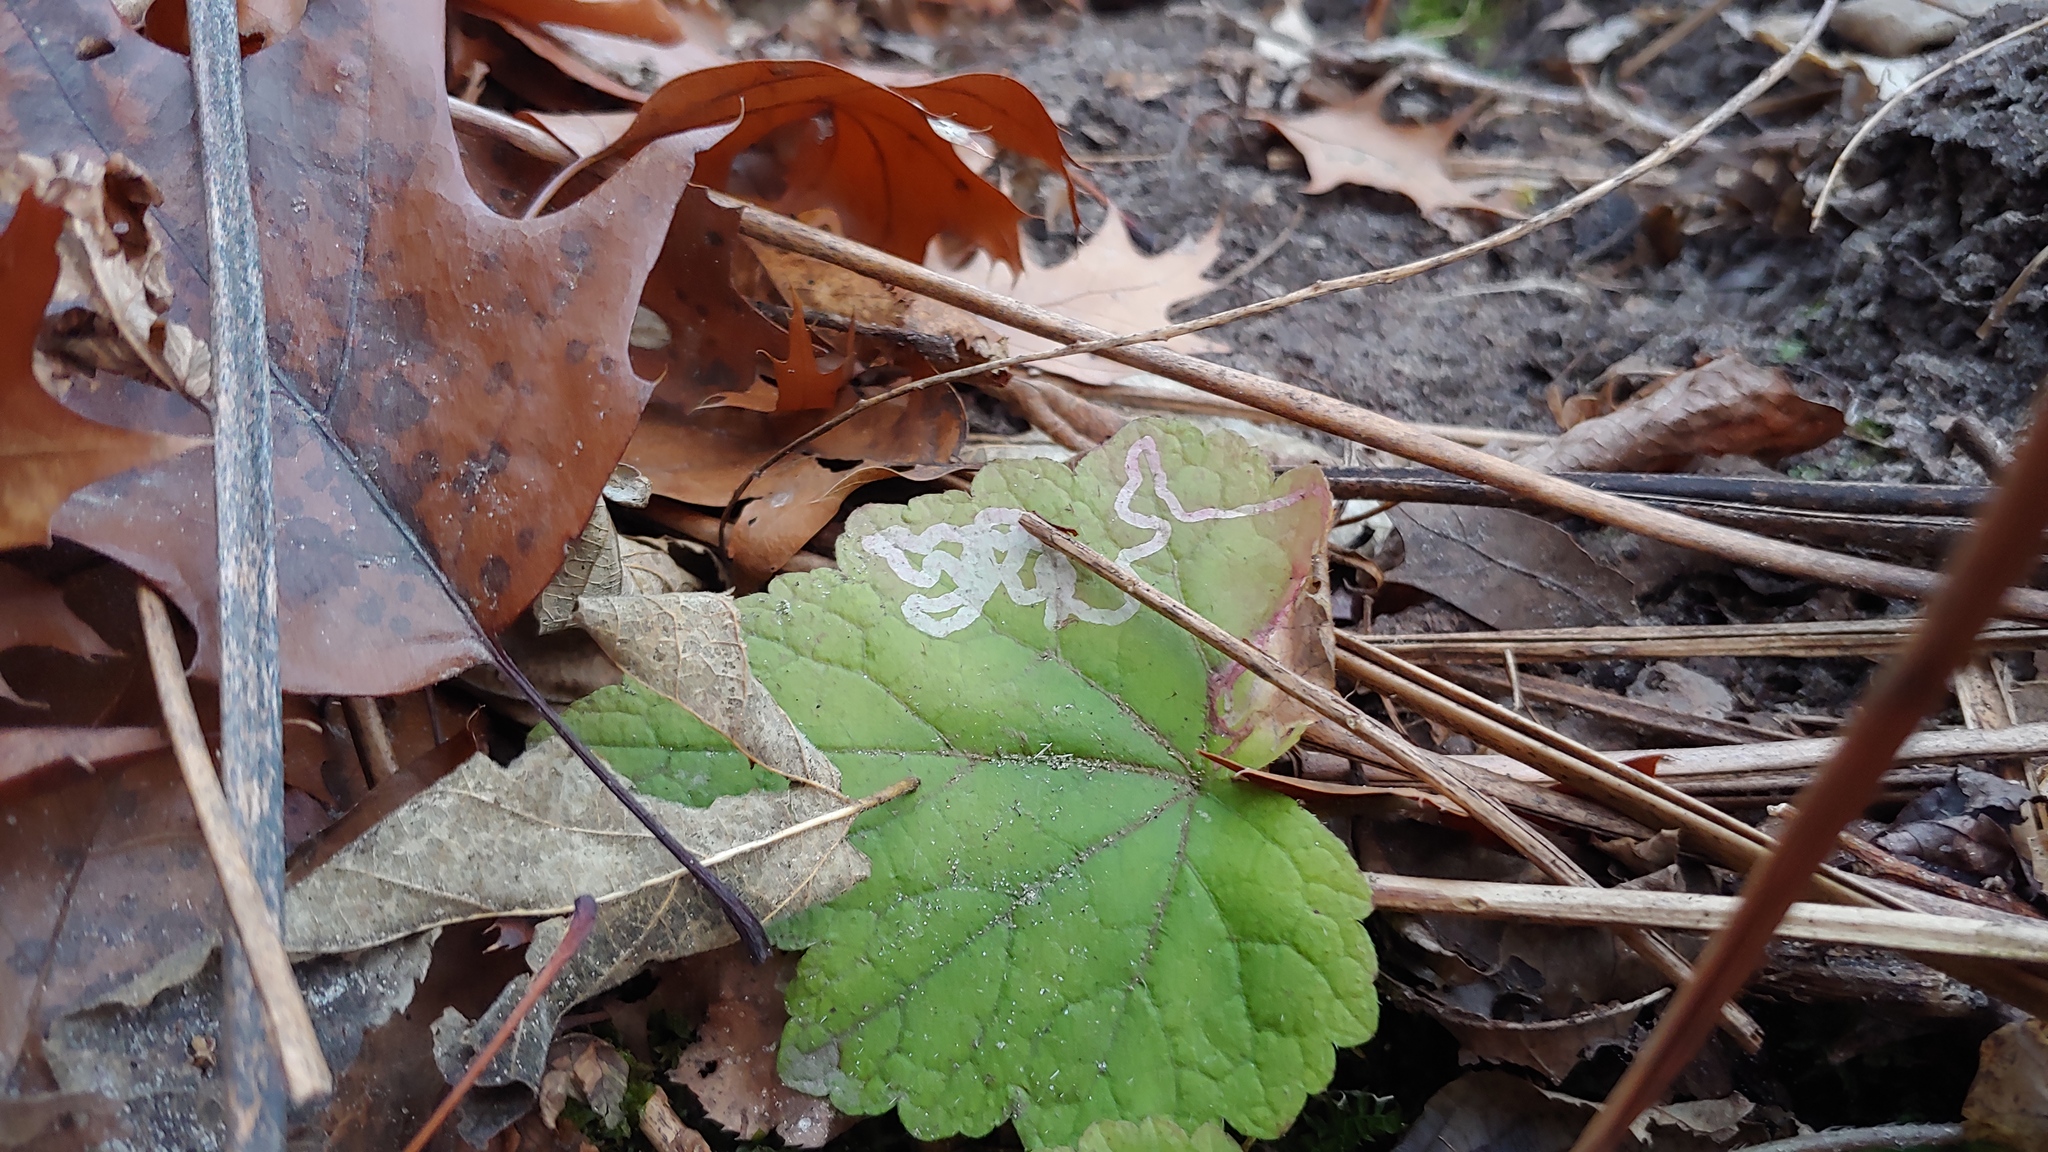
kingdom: Animalia
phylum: Arthropoda
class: Insecta
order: Diptera
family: Agromyzidae
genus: Phytomyza
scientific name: Phytomyza mitellae
